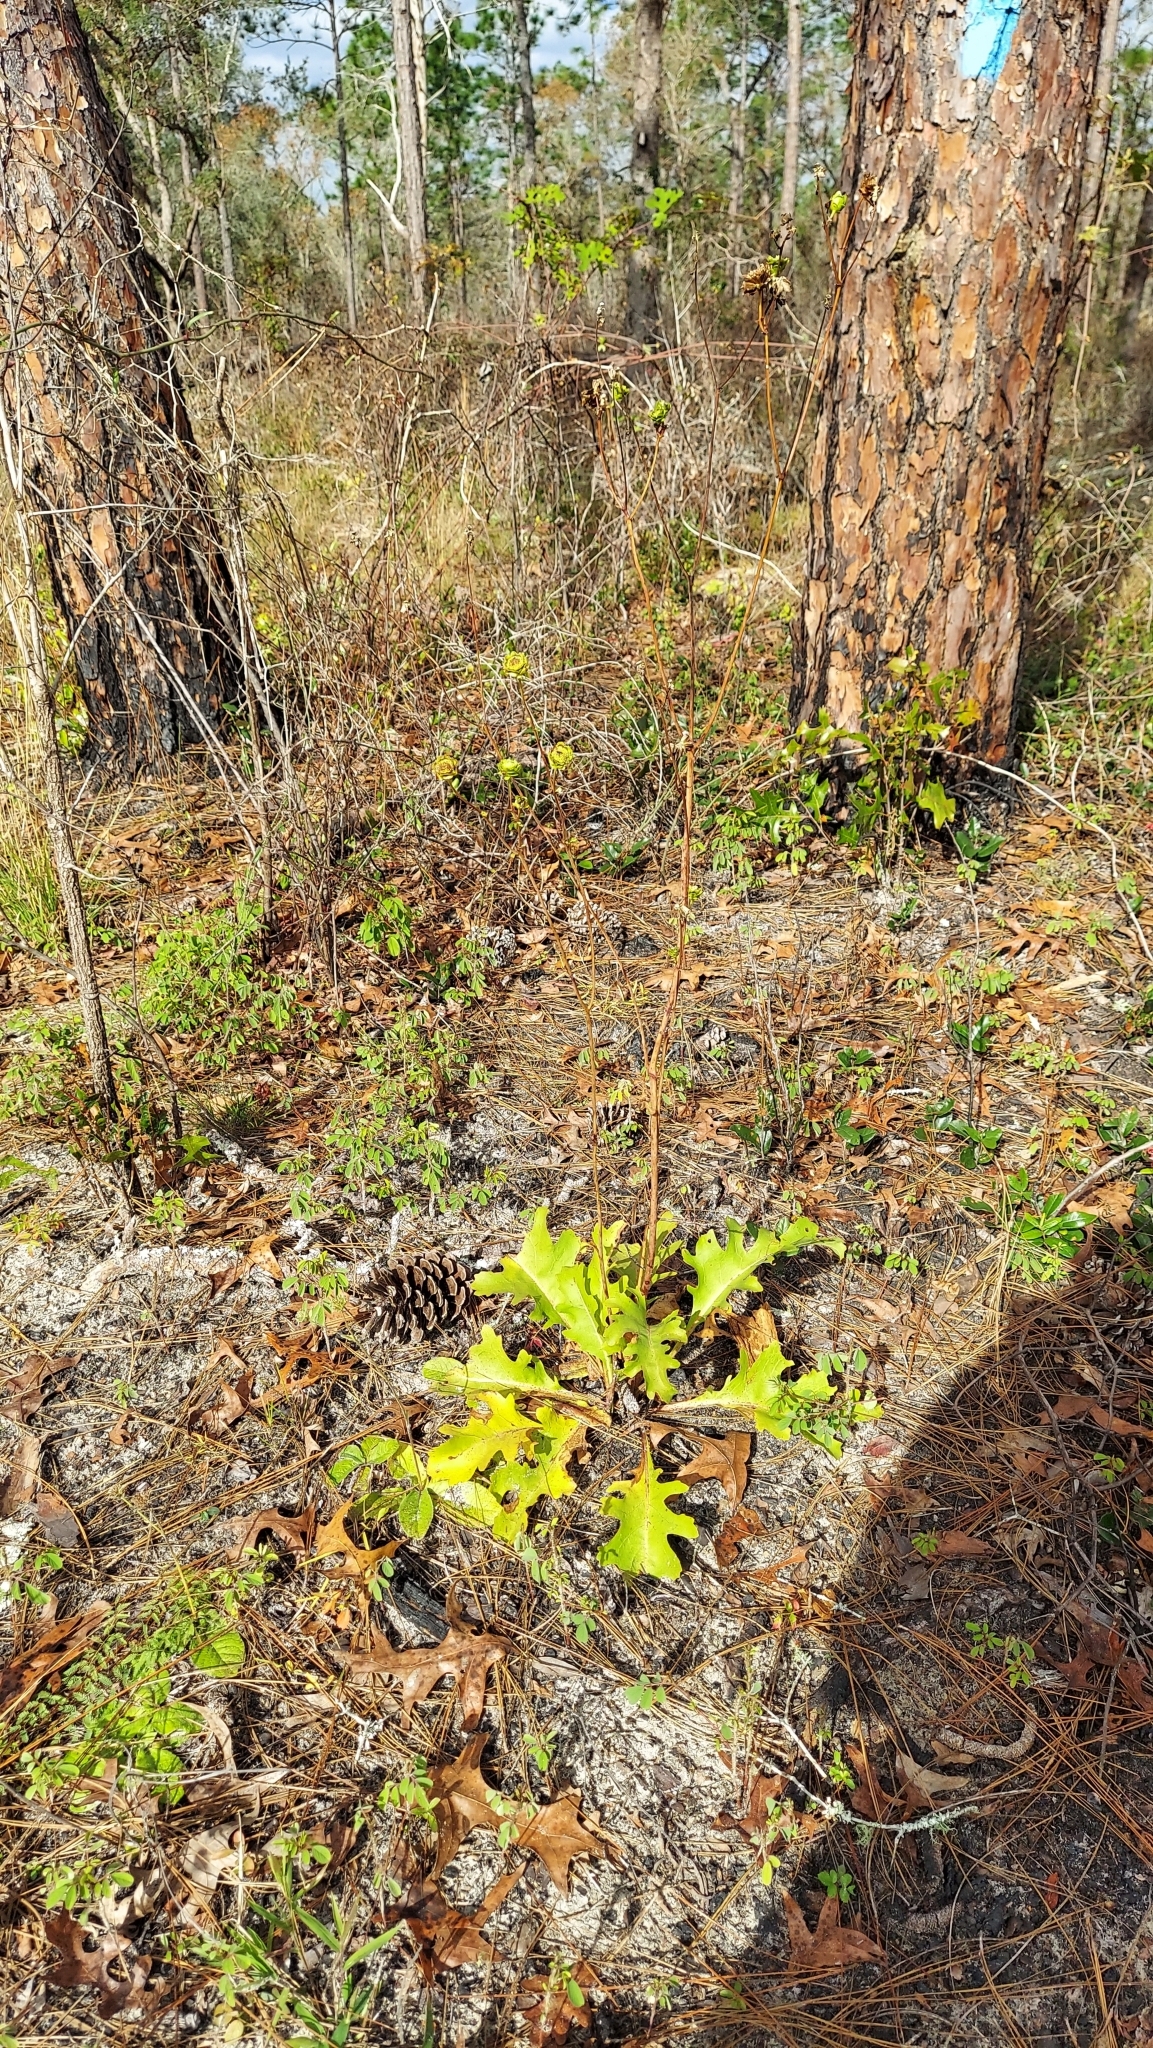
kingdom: Plantae
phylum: Tracheophyta
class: Magnoliopsida
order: Asterales
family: Asteraceae
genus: Silphium
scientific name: Silphium compositum
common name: Lesser basal-leaf rosinweed
